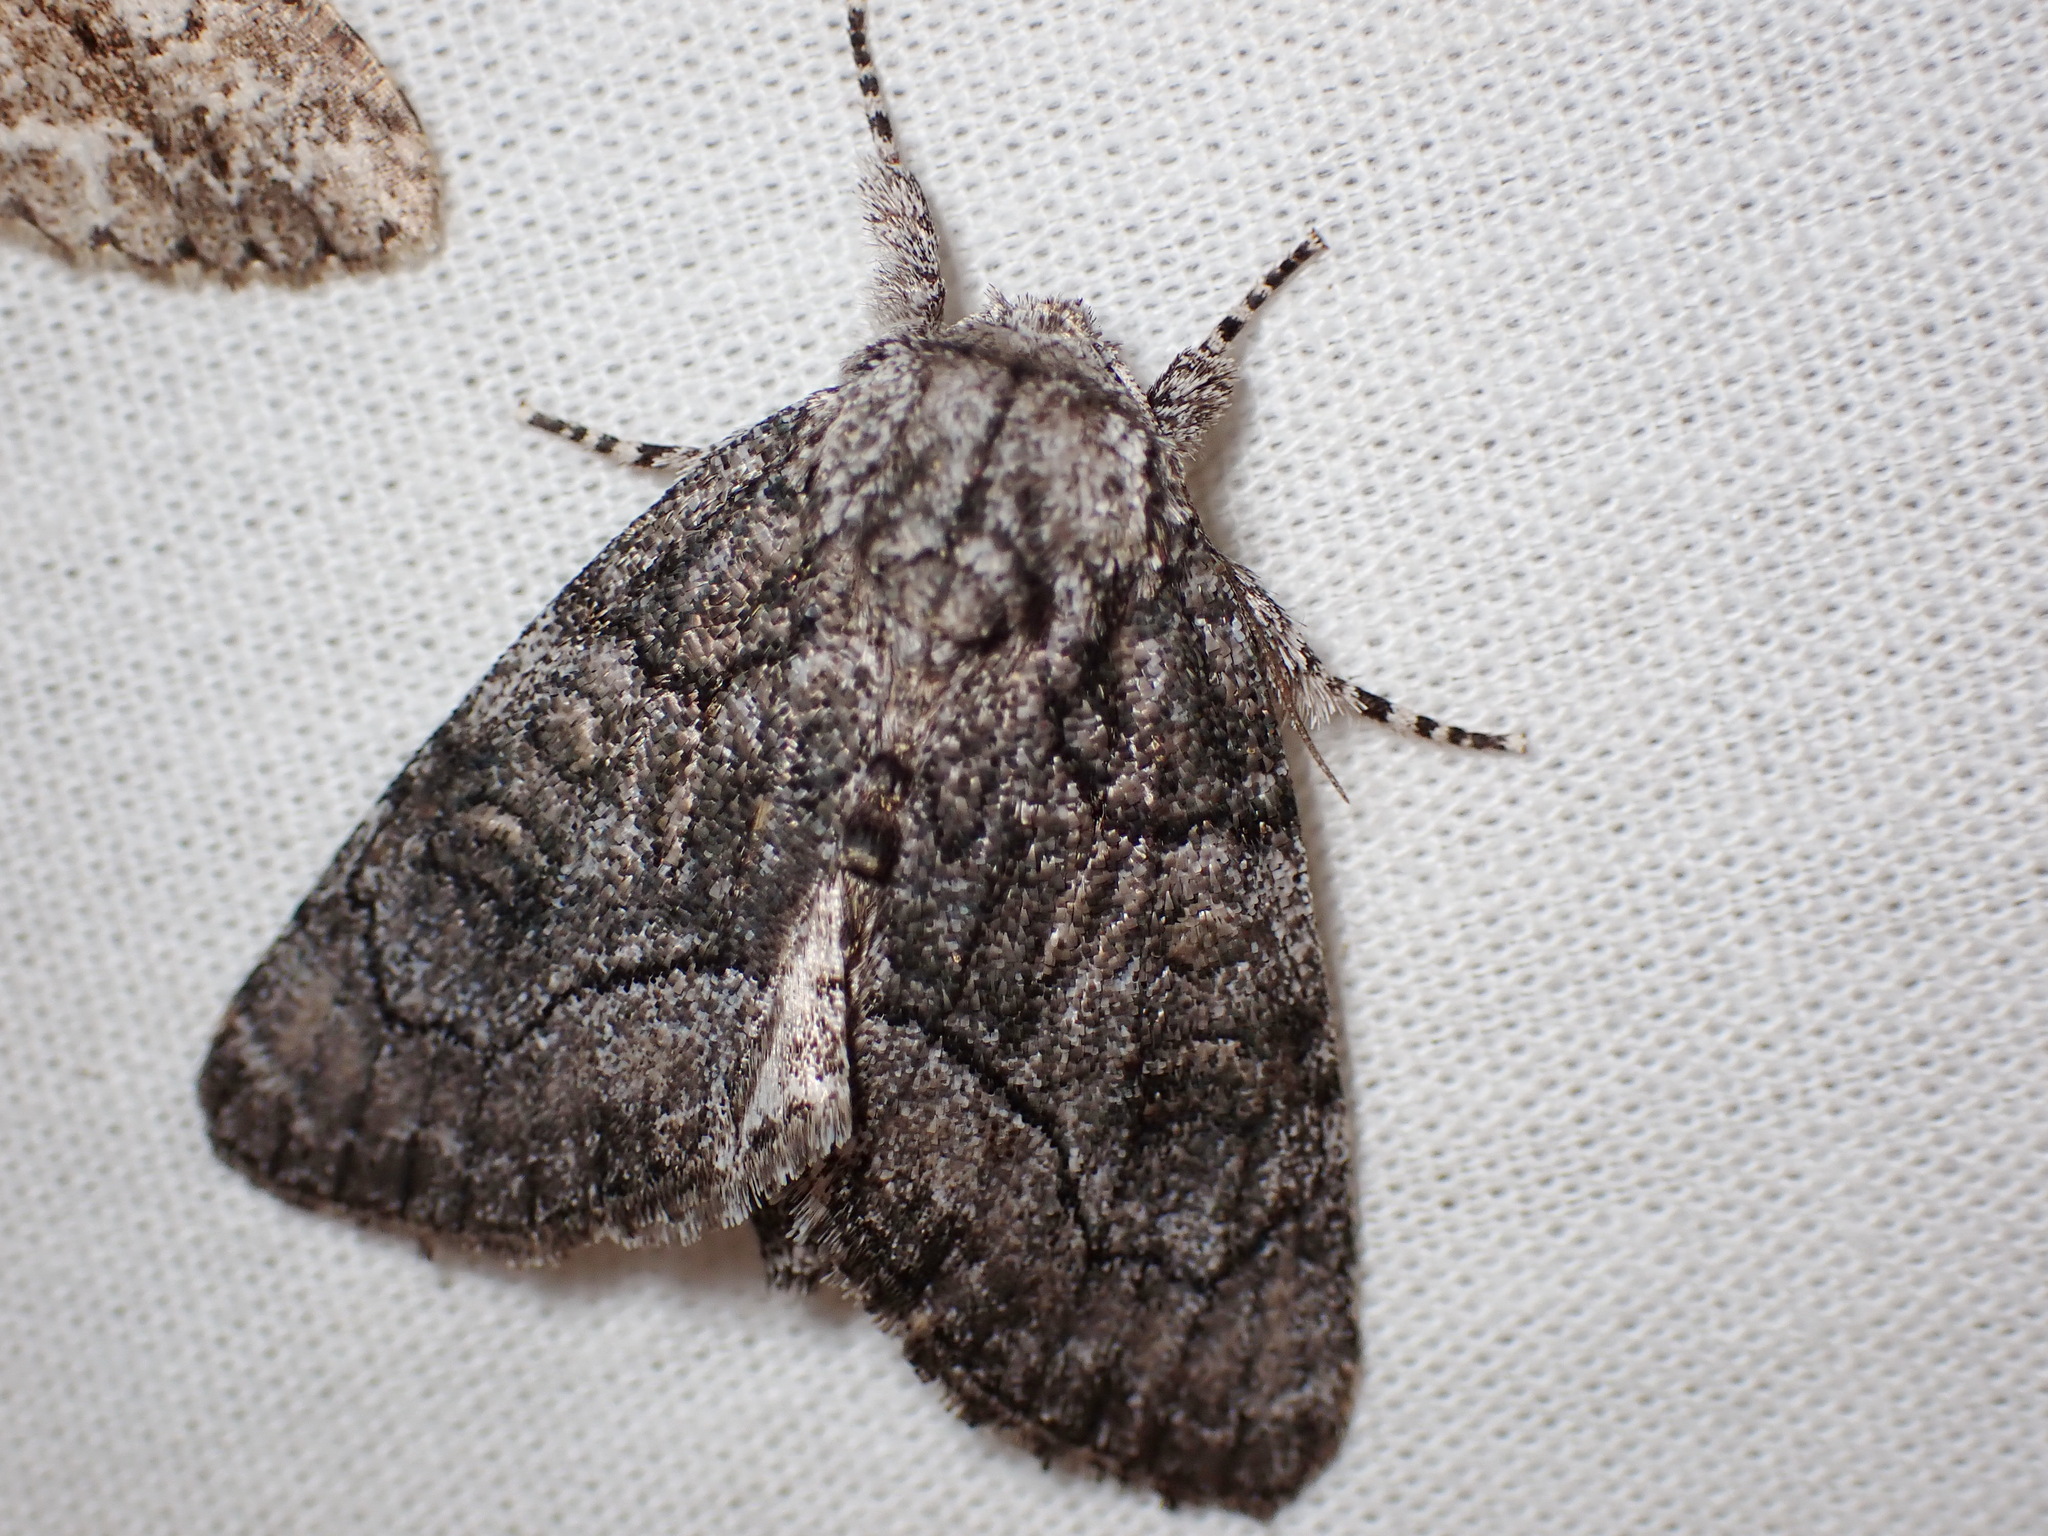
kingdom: Animalia
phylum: Arthropoda
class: Insecta
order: Lepidoptera
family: Noctuidae
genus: Raphia
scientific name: Raphia frater
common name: Brother
